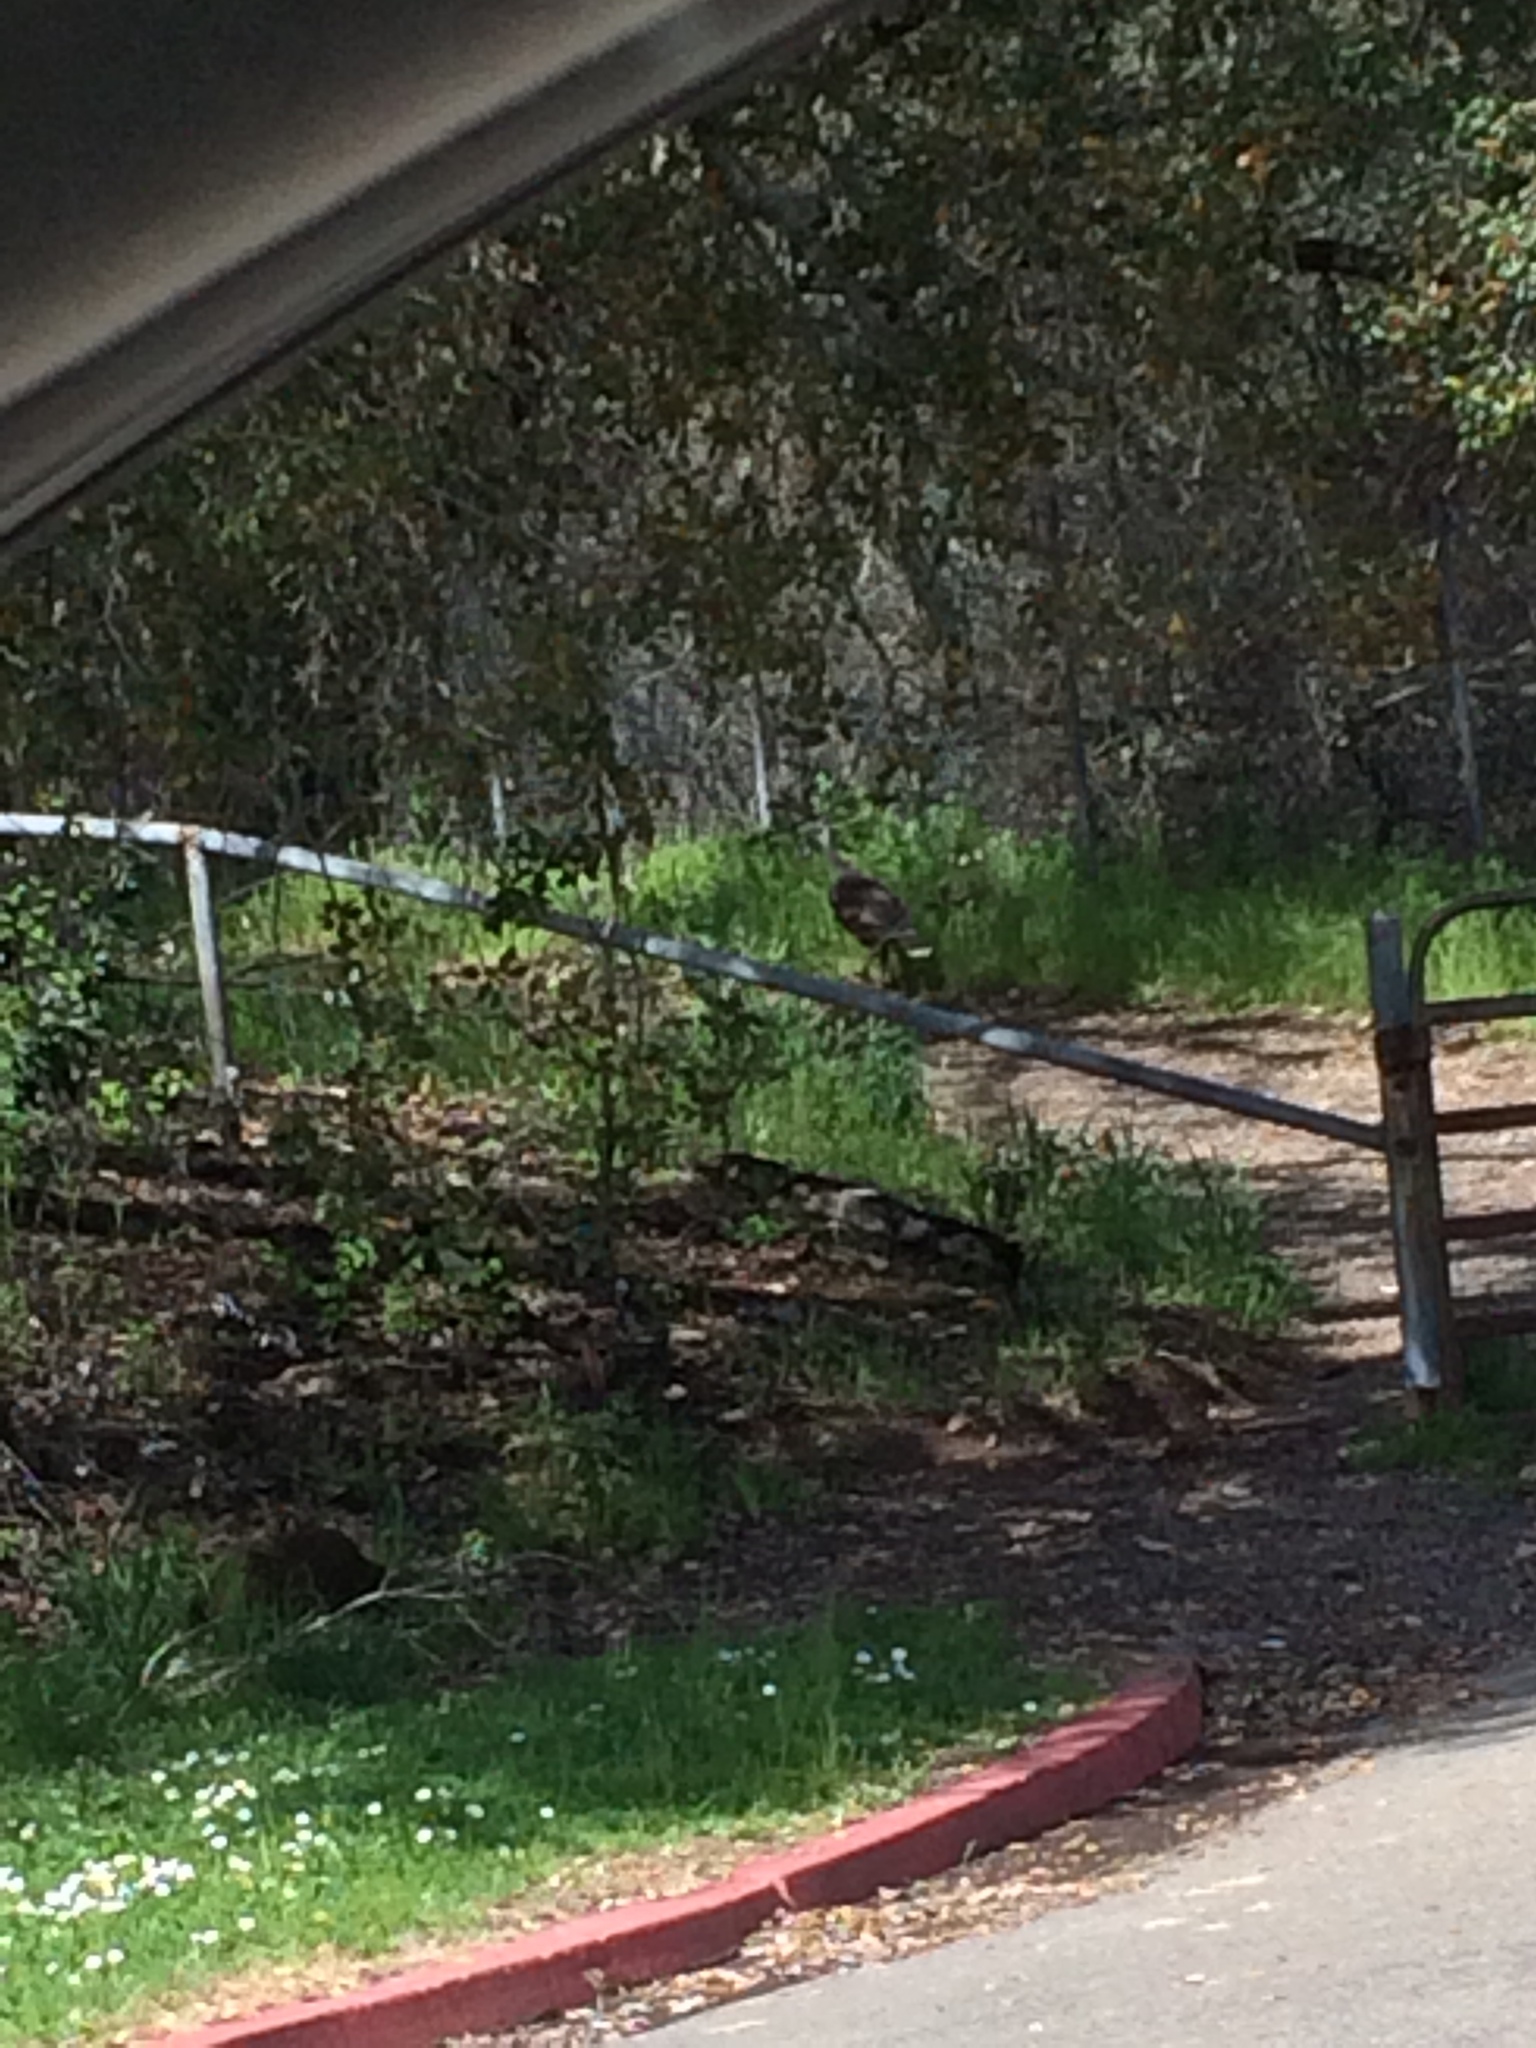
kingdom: Animalia
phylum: Chordata
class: Aves
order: Galliformes
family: Phasianidae
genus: Meleagris
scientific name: Meleagris gallopavo
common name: Wild turkey
